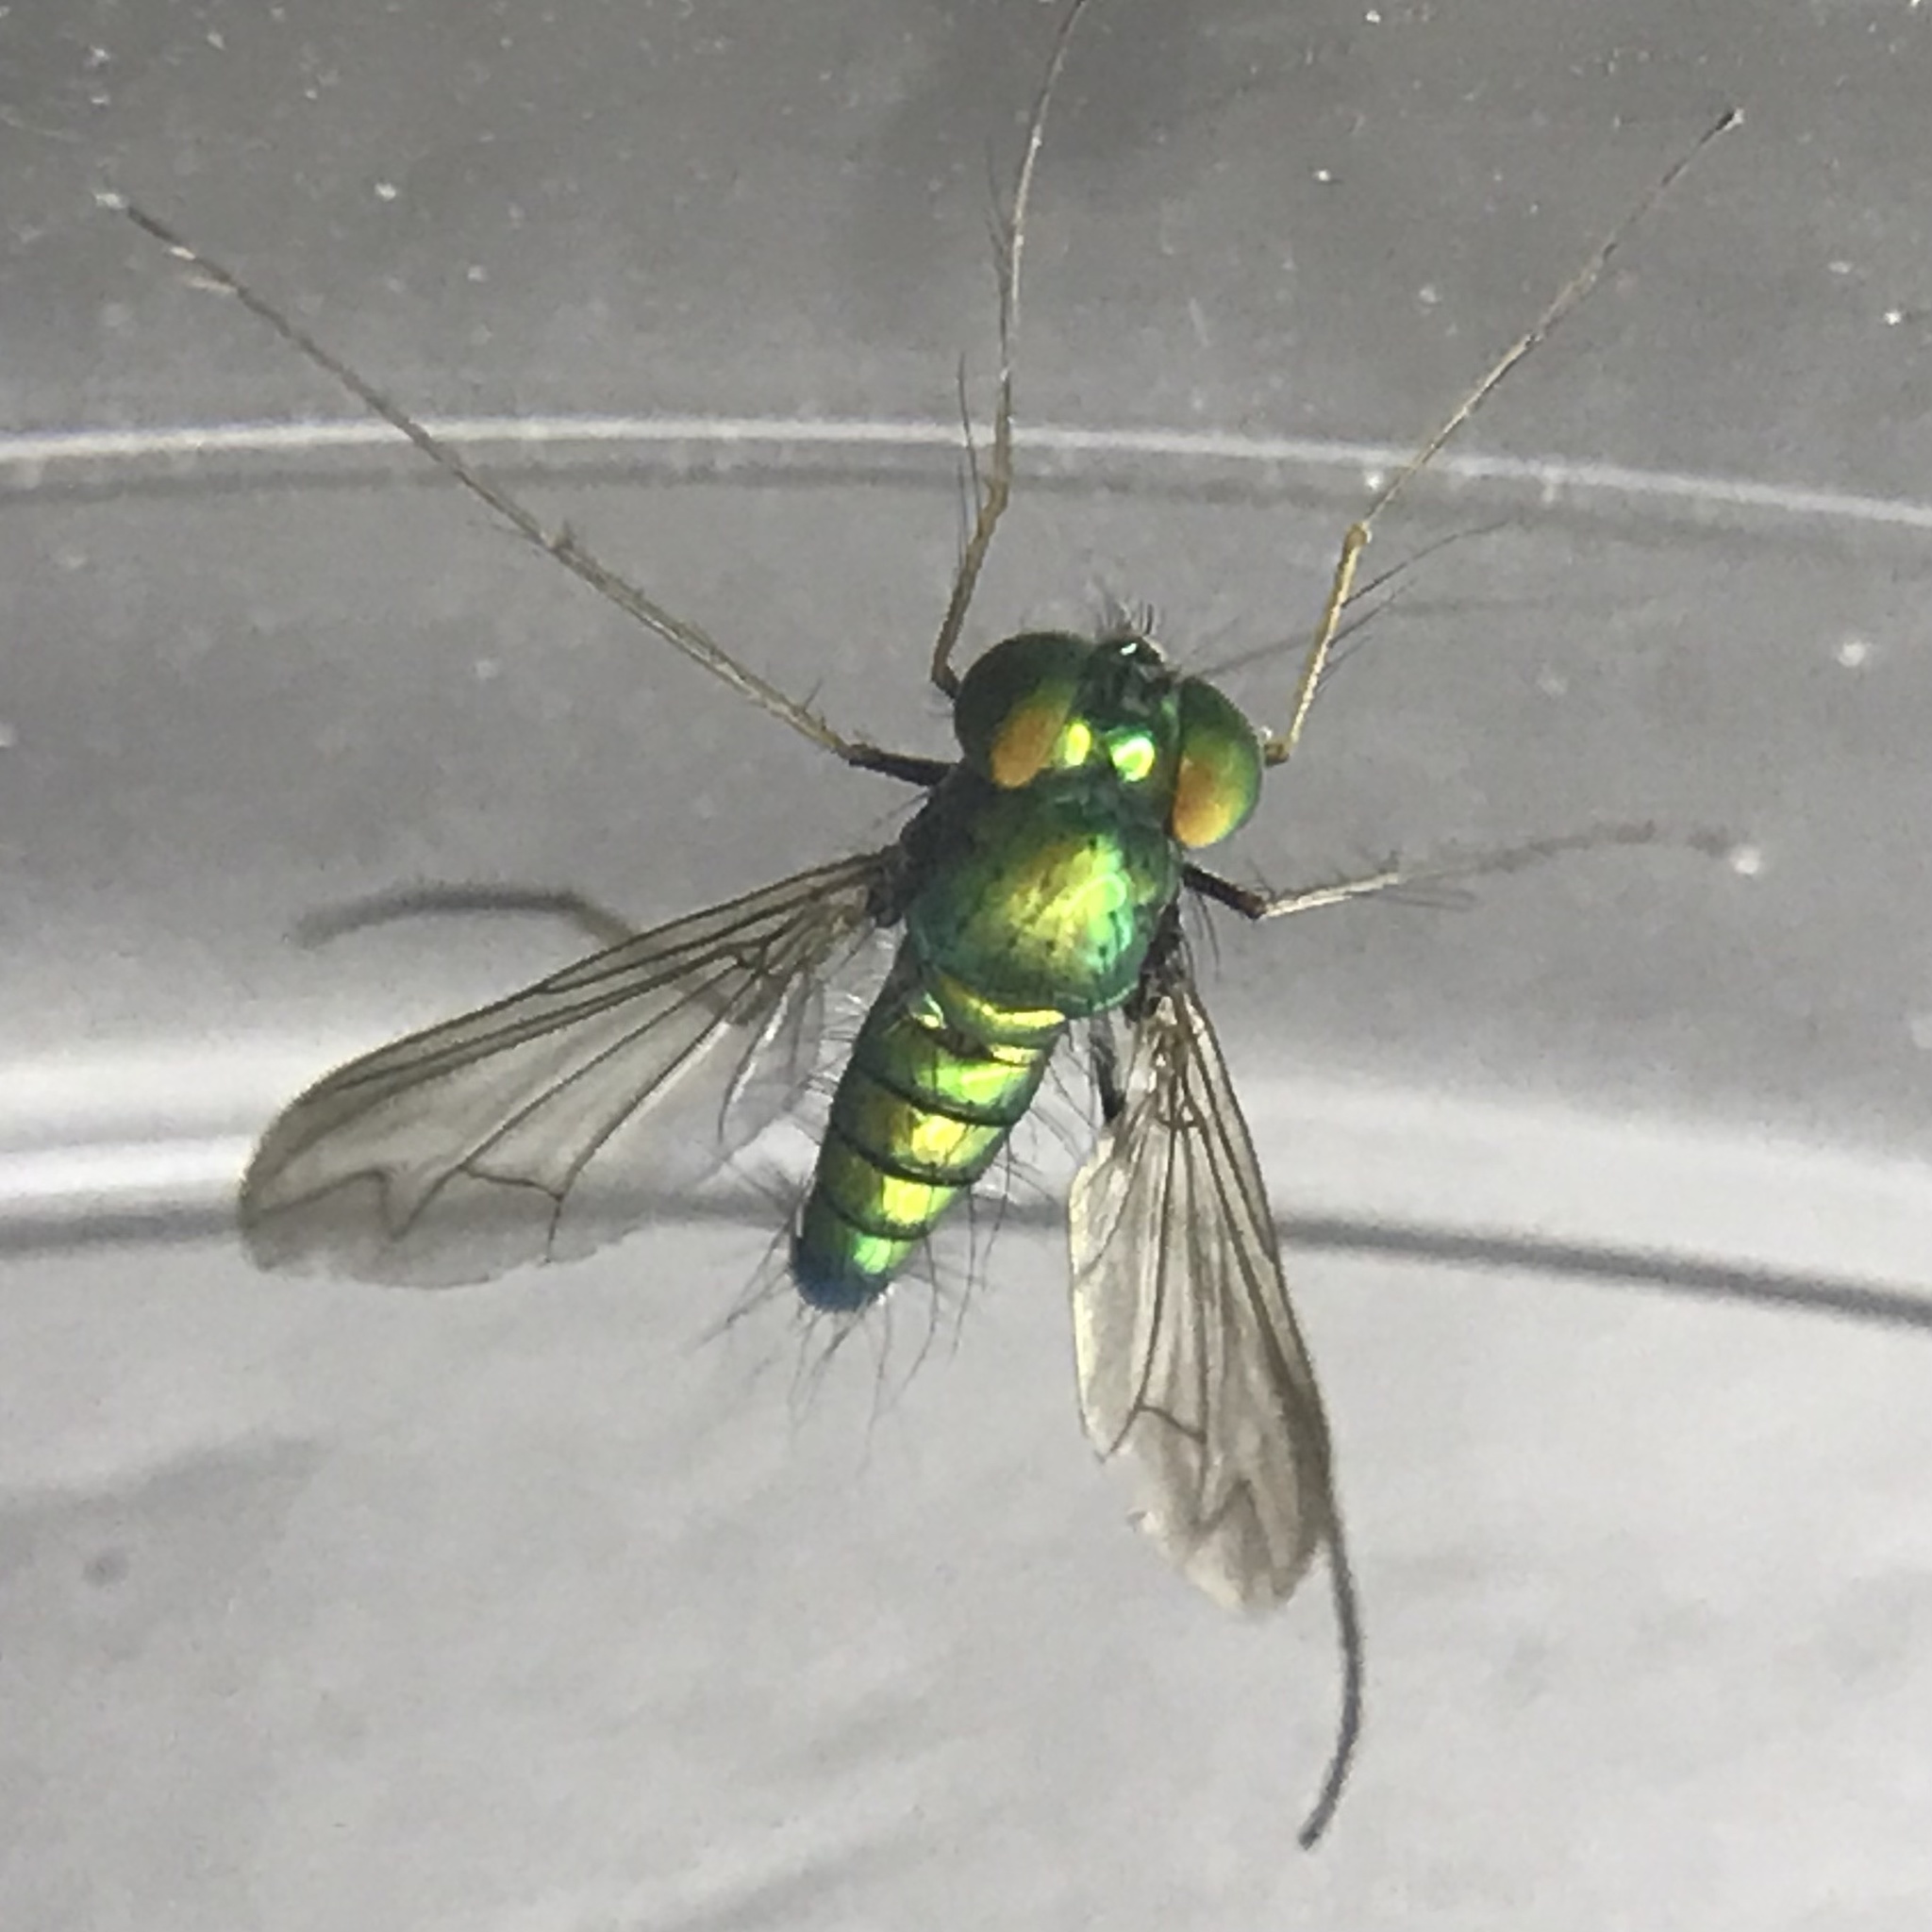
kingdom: Animalia
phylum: Arthropoda
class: Insecta
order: Diptera
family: Dolichopodidae
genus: Condylostylus
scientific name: Condylostylus comatus
